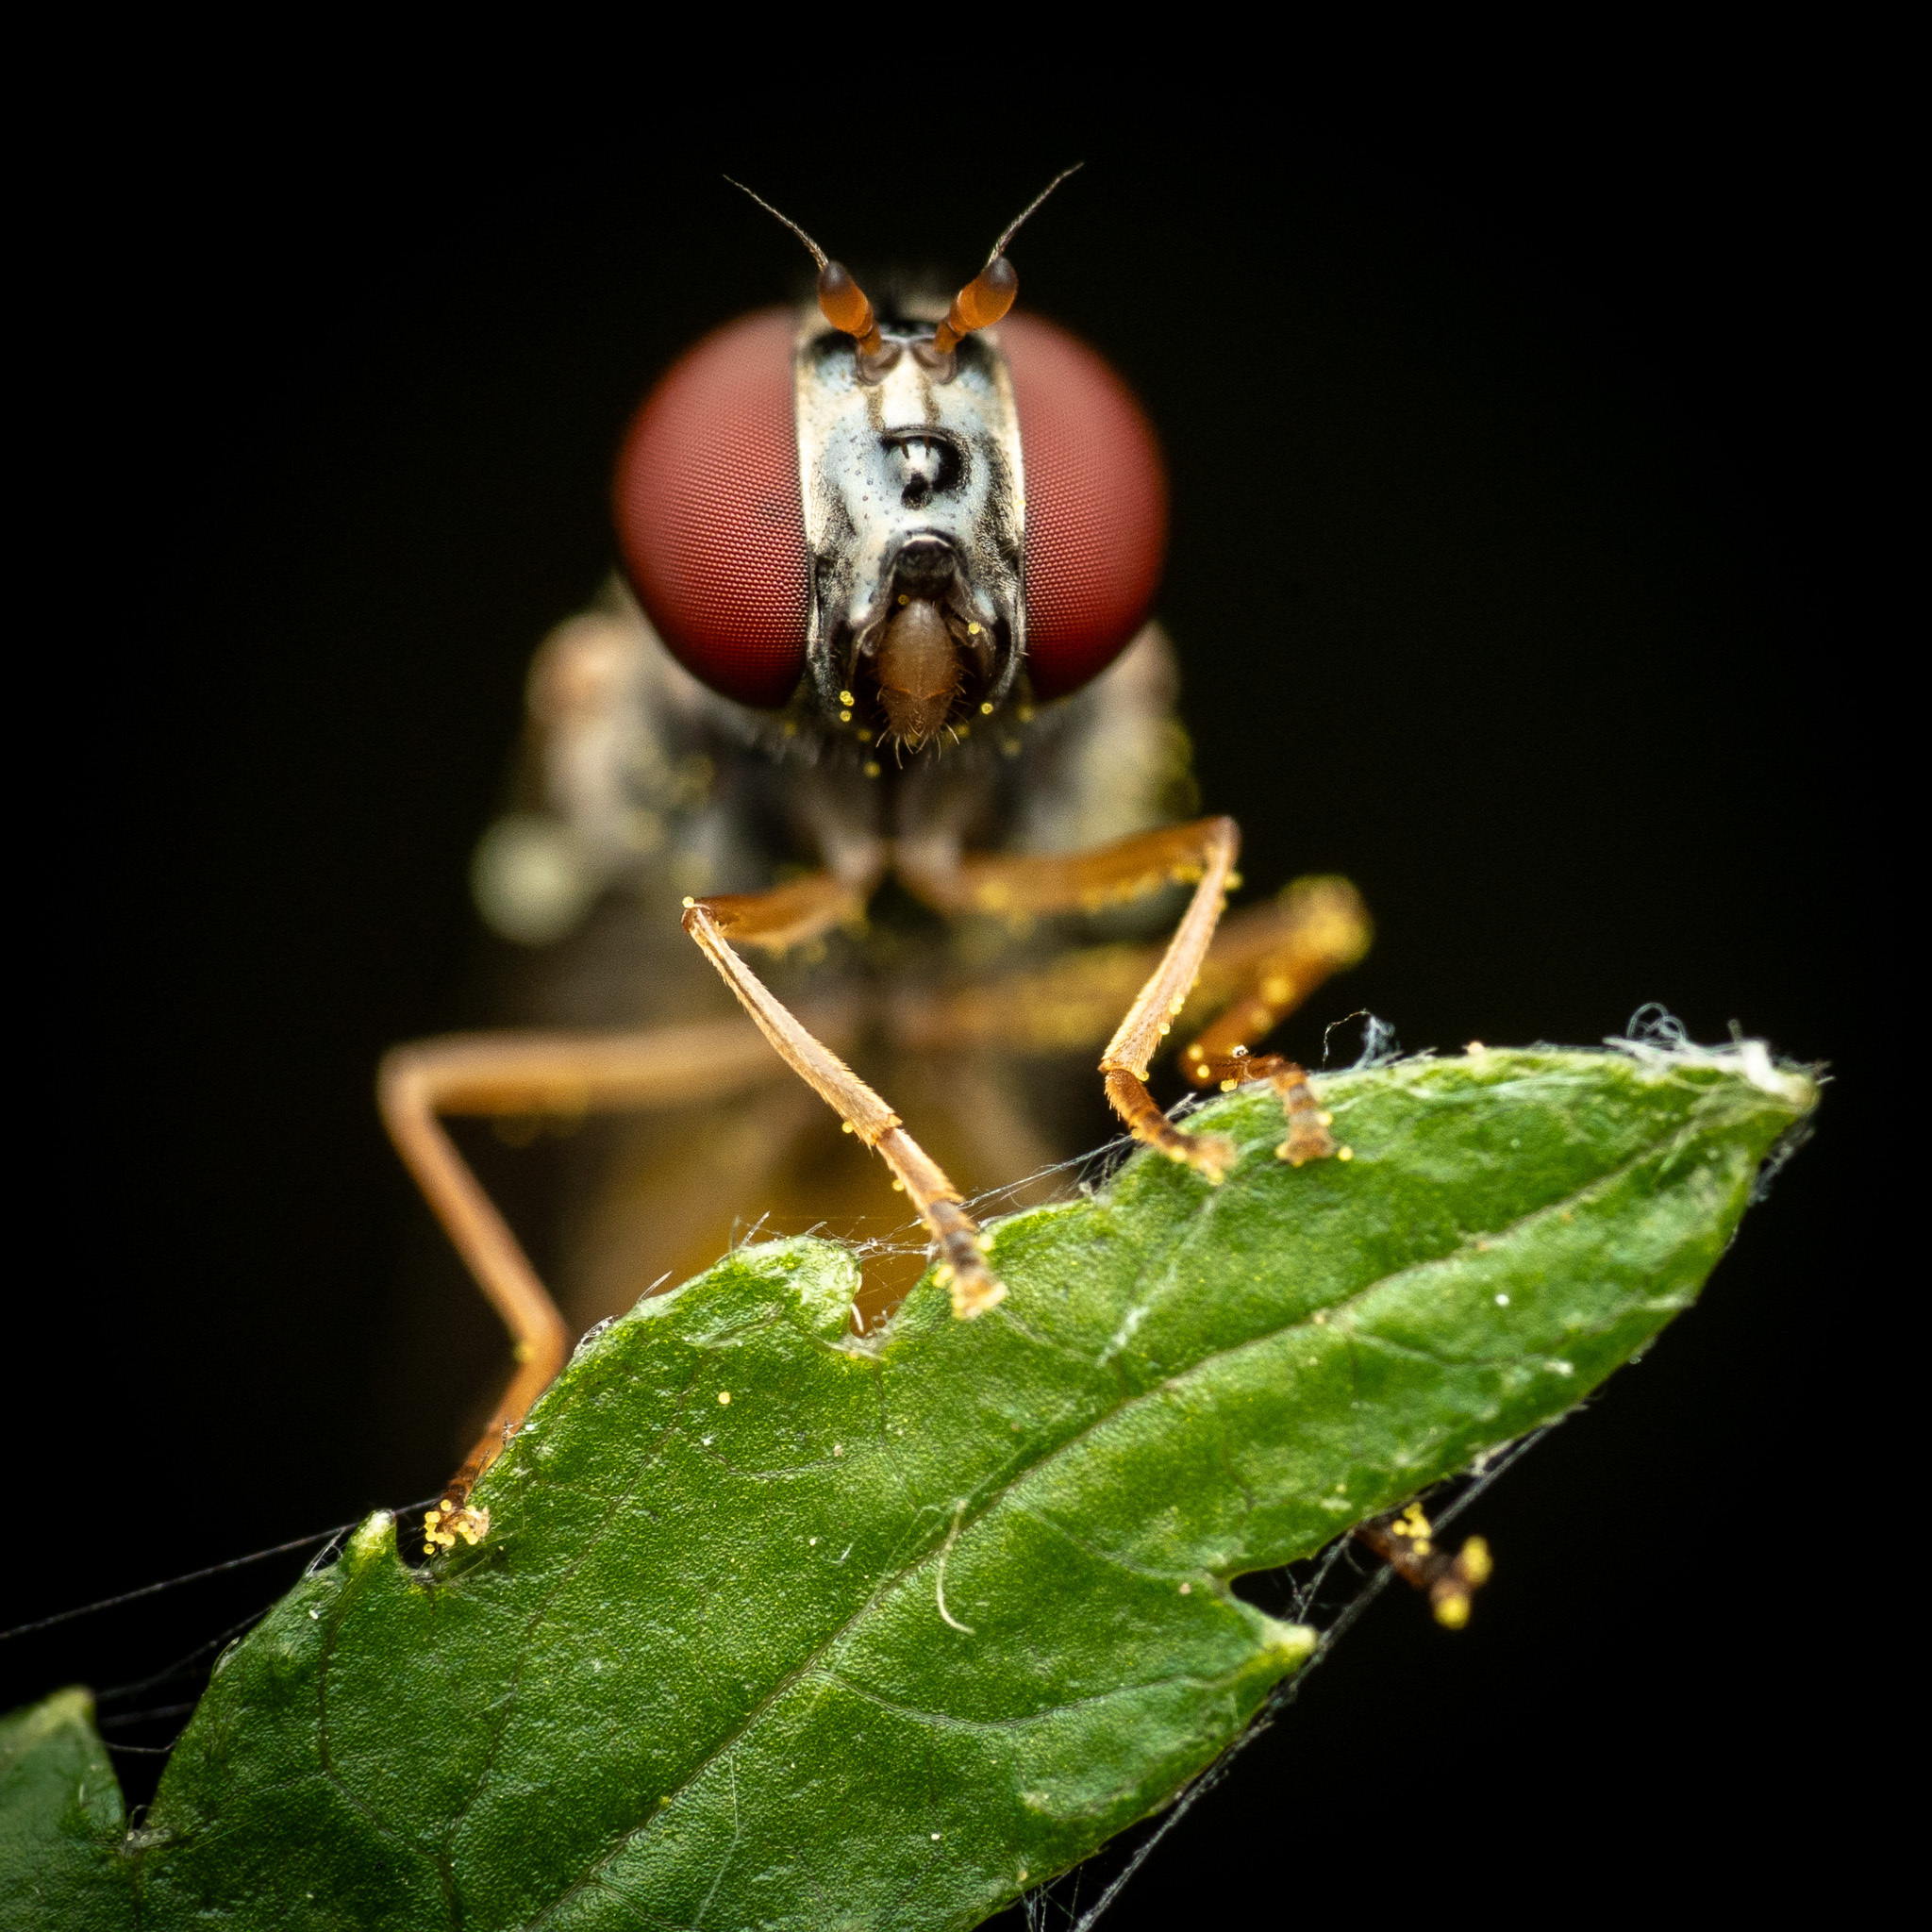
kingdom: Animalia
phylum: Arthropoda
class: Insecta
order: Diptera
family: Syrphidae
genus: Melanostoma
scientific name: Melanostoma mellina
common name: Hover fly
